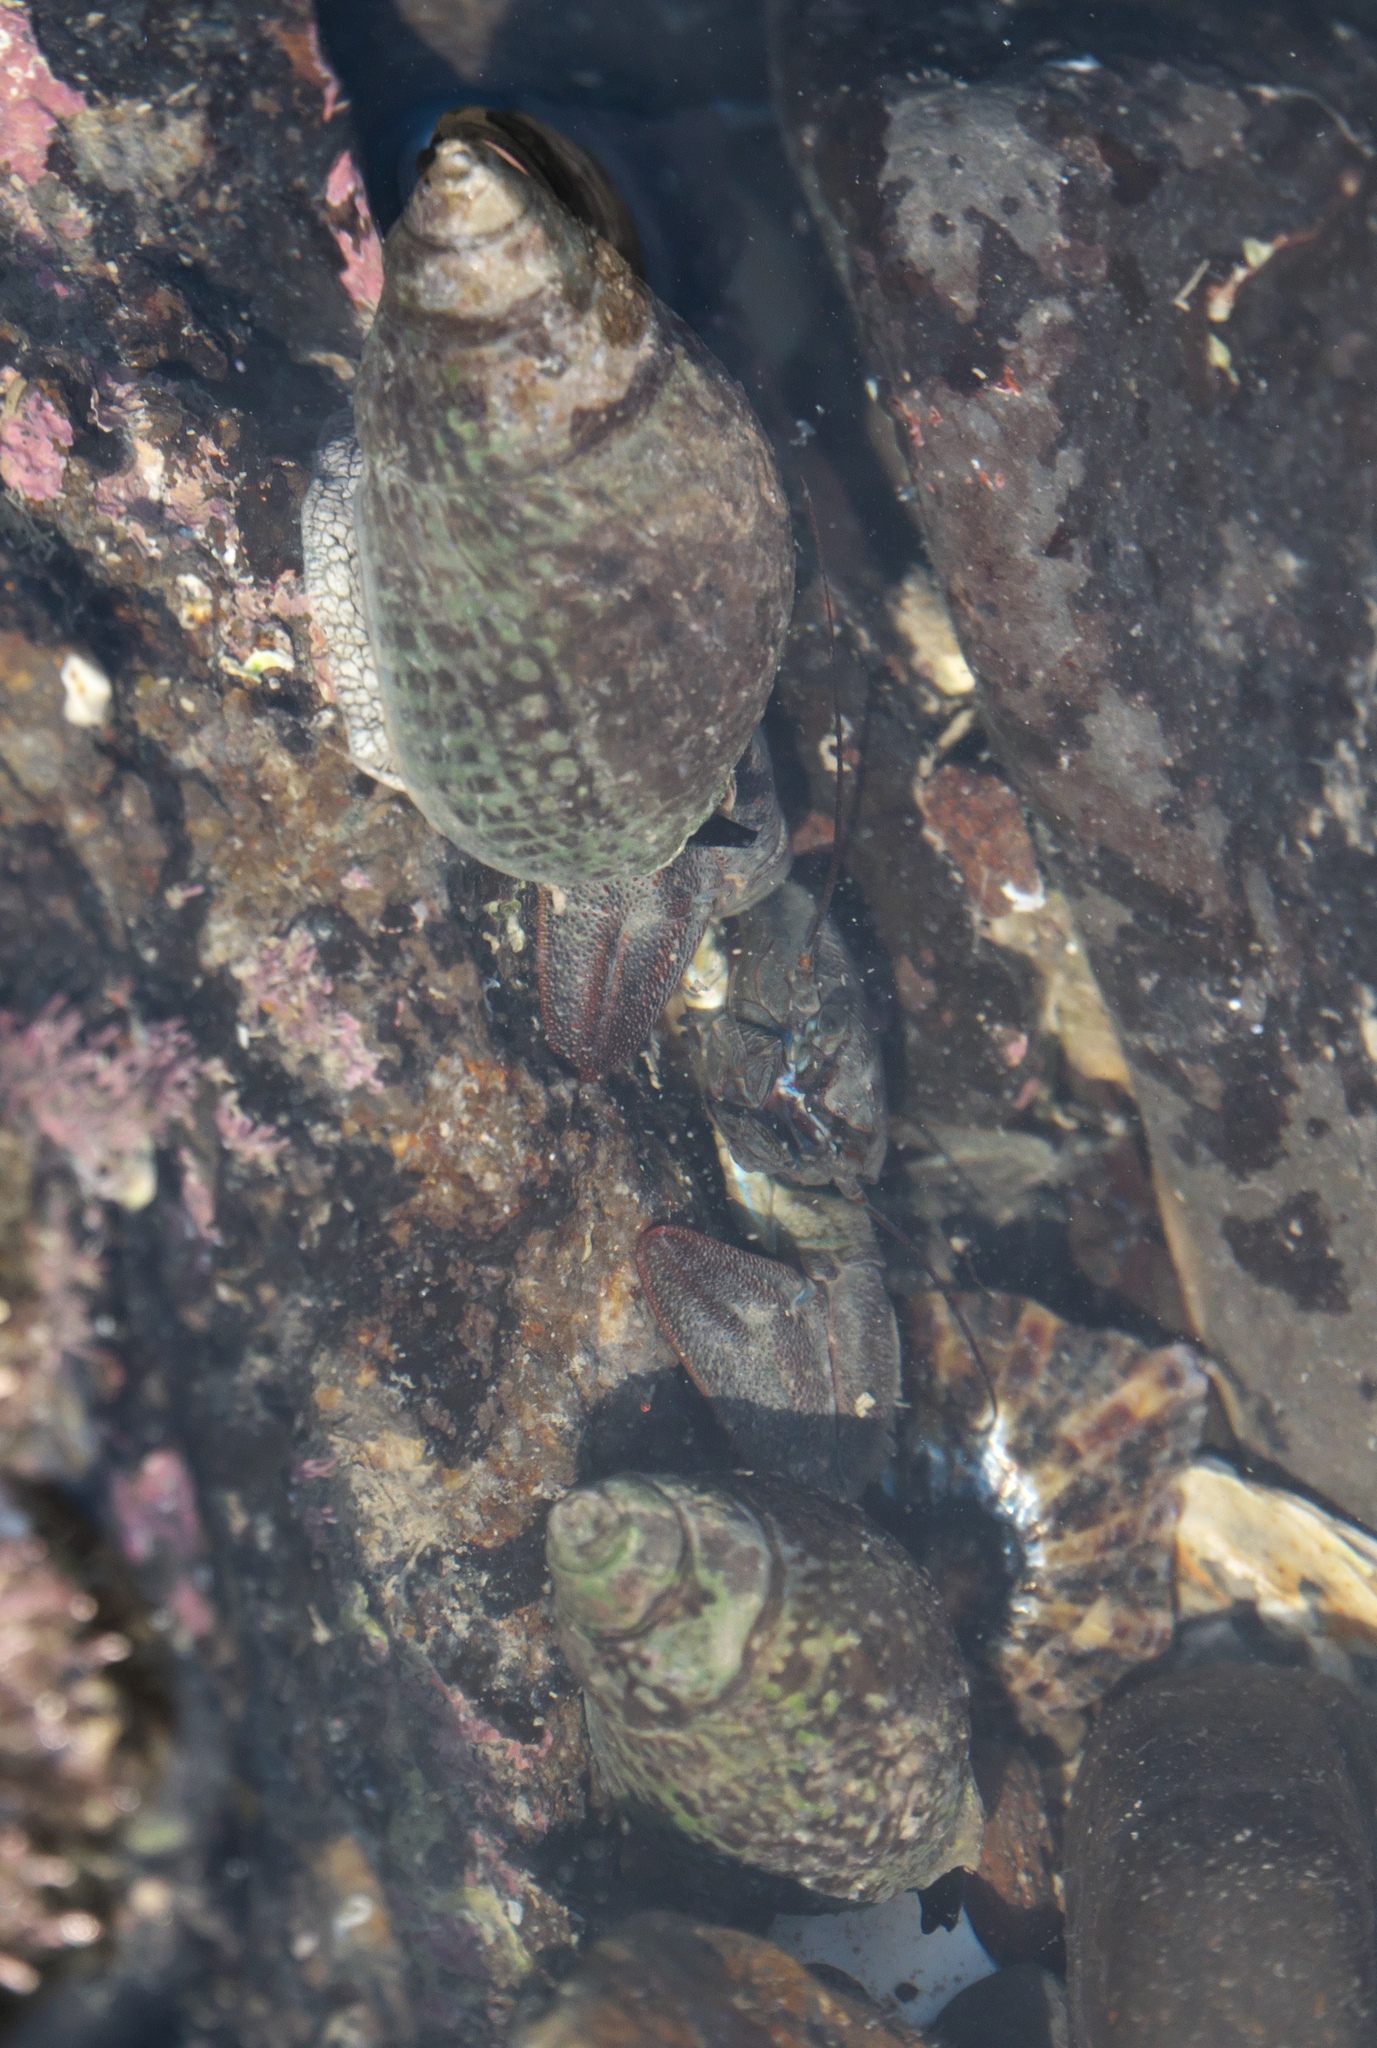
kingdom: Animalia
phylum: Mollusca
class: Gastropoda
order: Neogastropoda
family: Cominellidae
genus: Cominella
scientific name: Cominella maculosa
